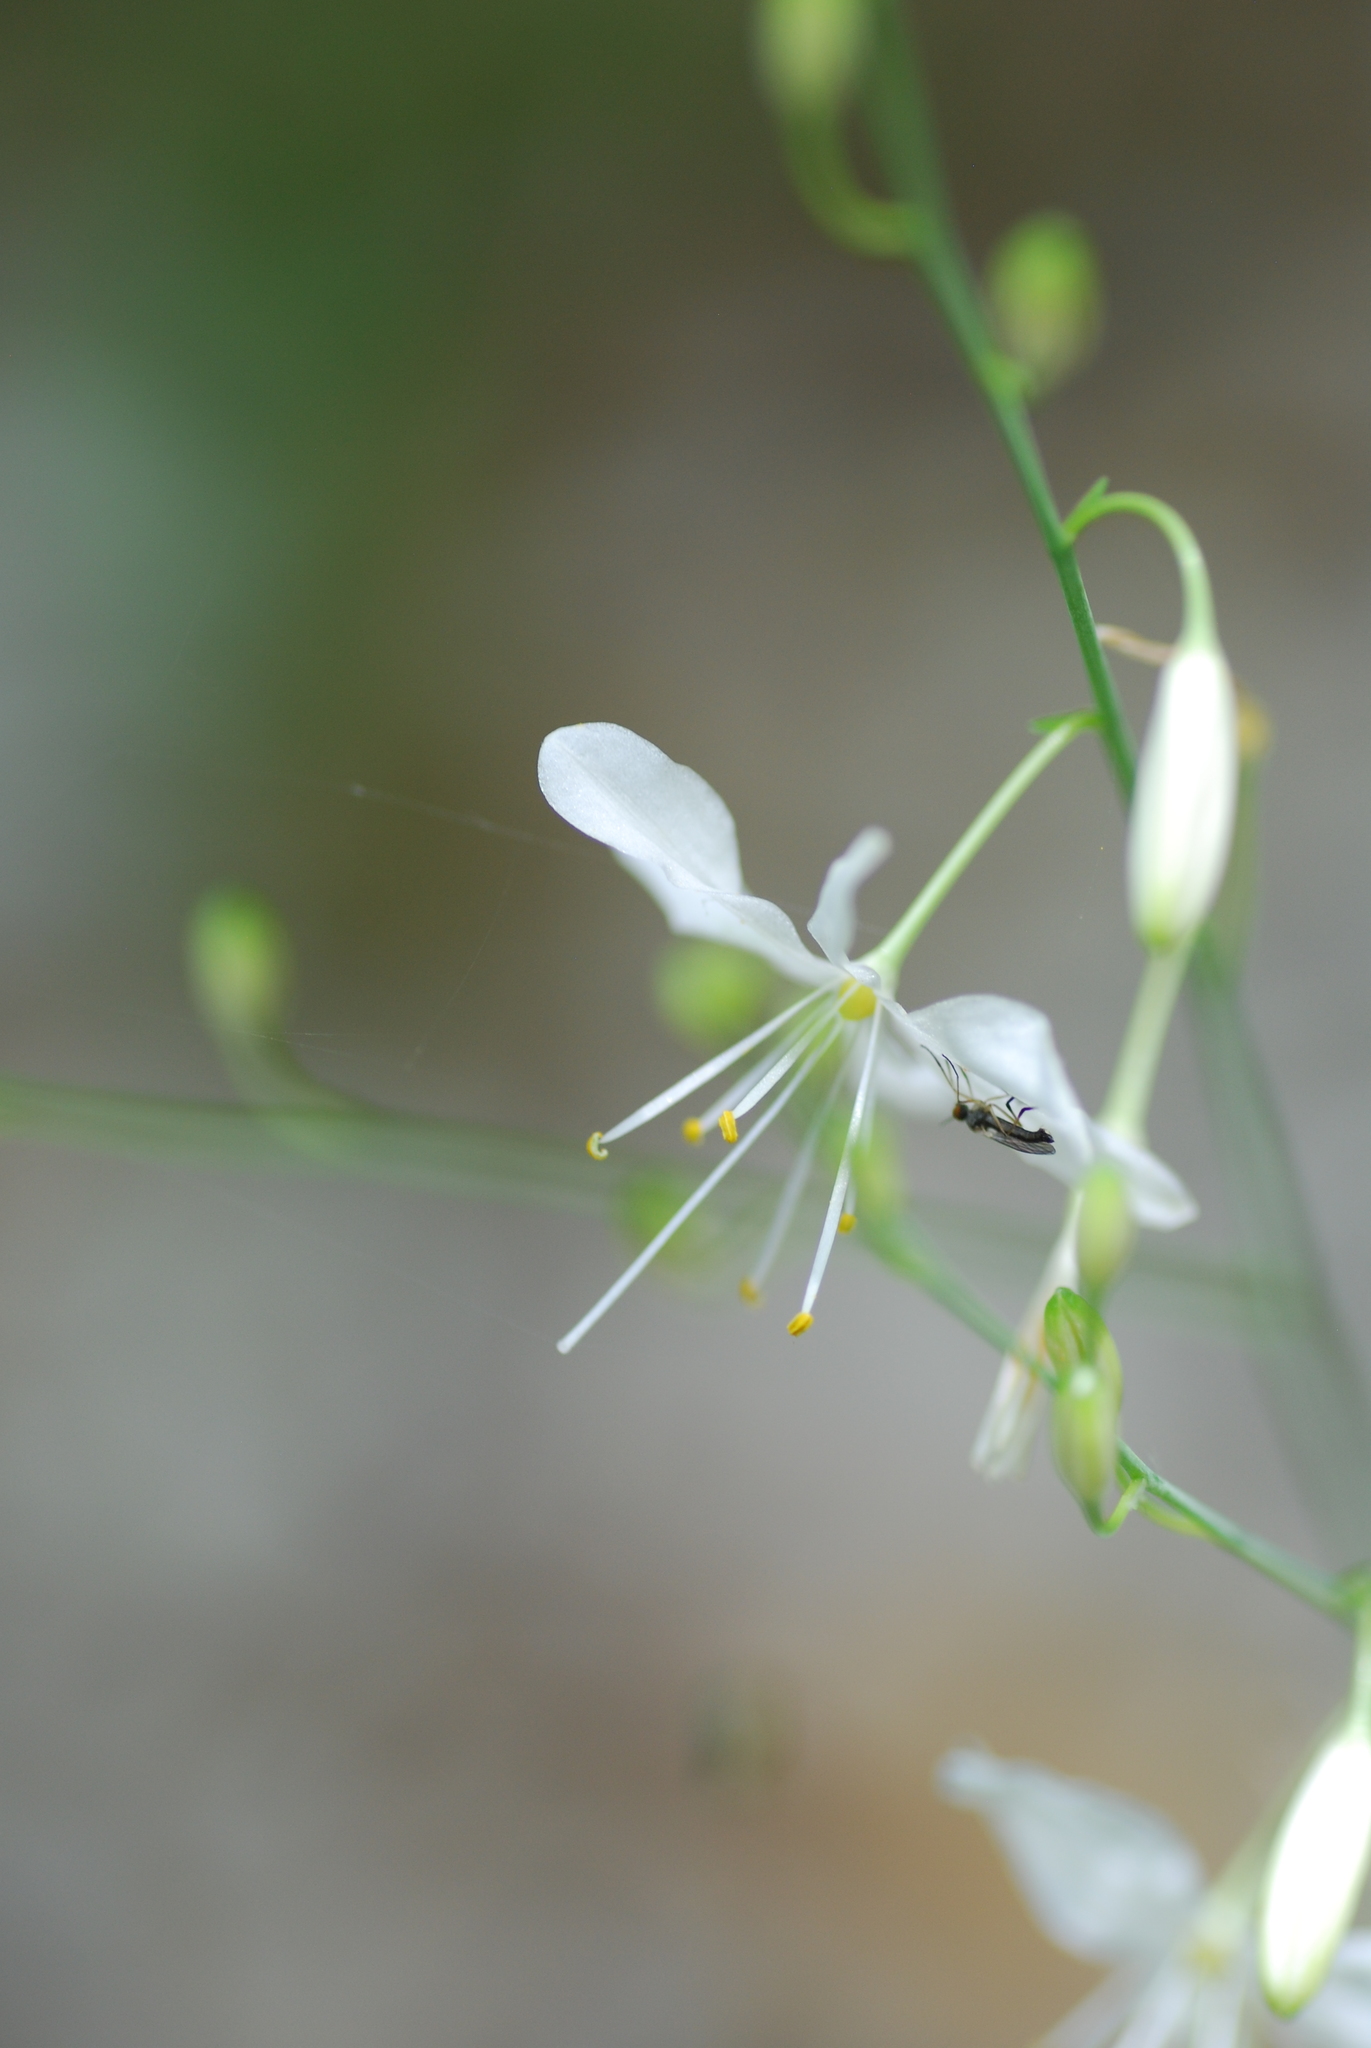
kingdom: Plantae
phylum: Tracheophyta
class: Liliopsida
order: Asparagales
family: Asparagaceae
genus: Anthericum
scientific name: Anthericum ramosum
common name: Branched st. bernard's-lily
